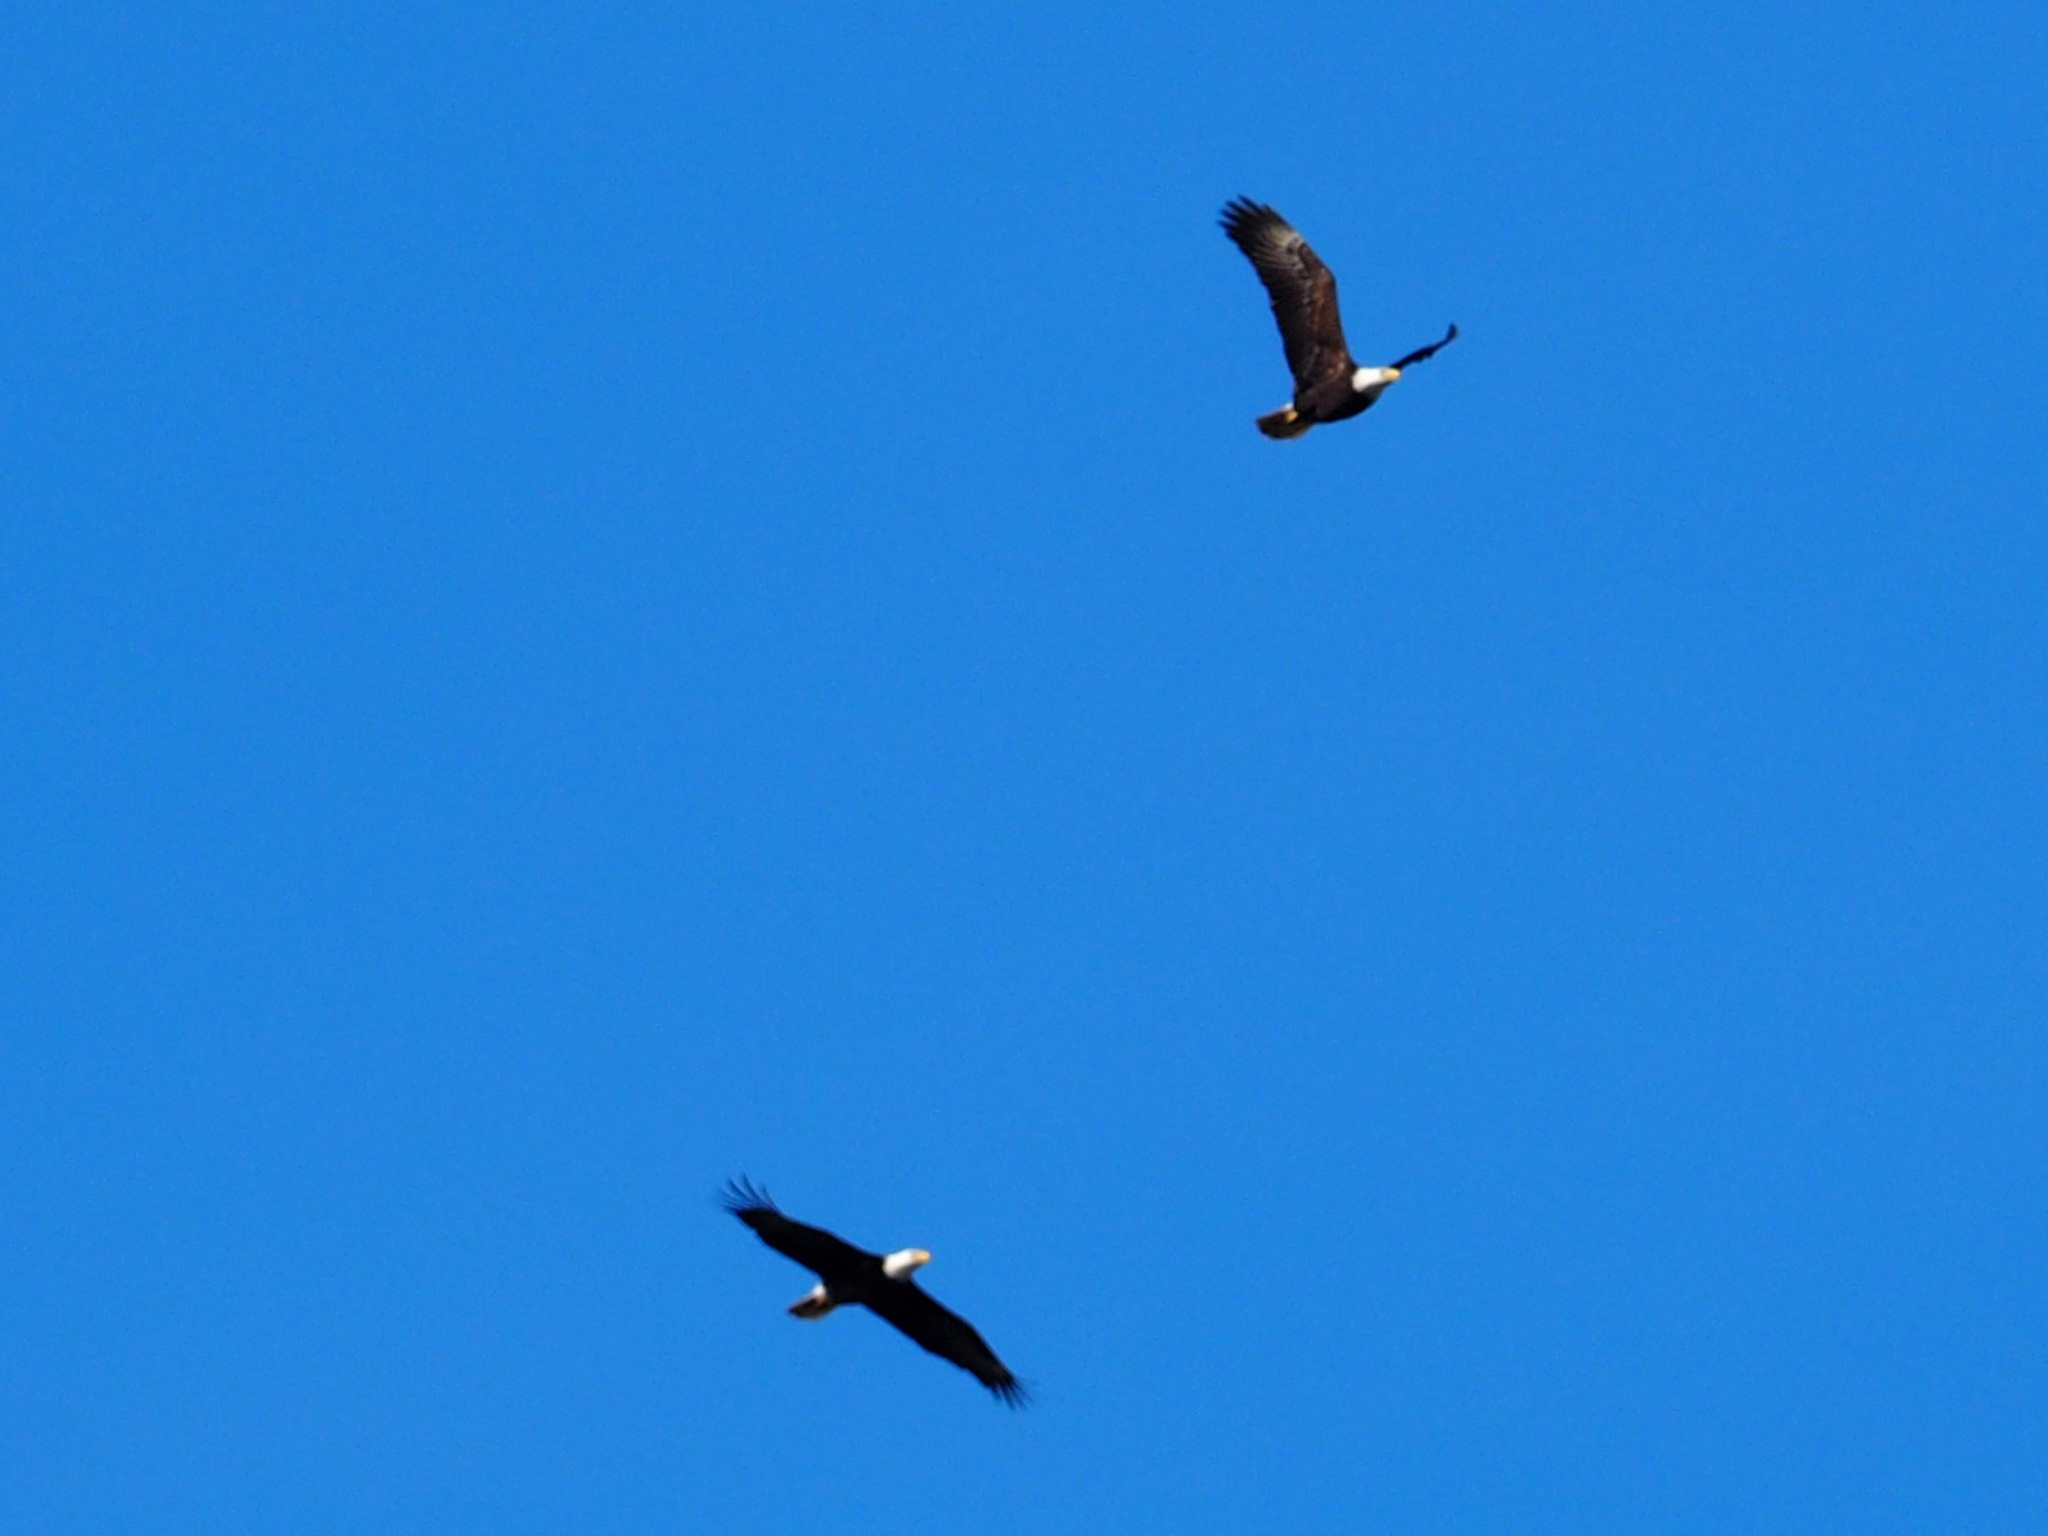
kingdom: Animalia
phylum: Chordata
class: Aves
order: Accipitriformes
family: Accipitridae
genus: Haliaeetus
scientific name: Haliaeetus leucocephalus
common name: Bald eagle
